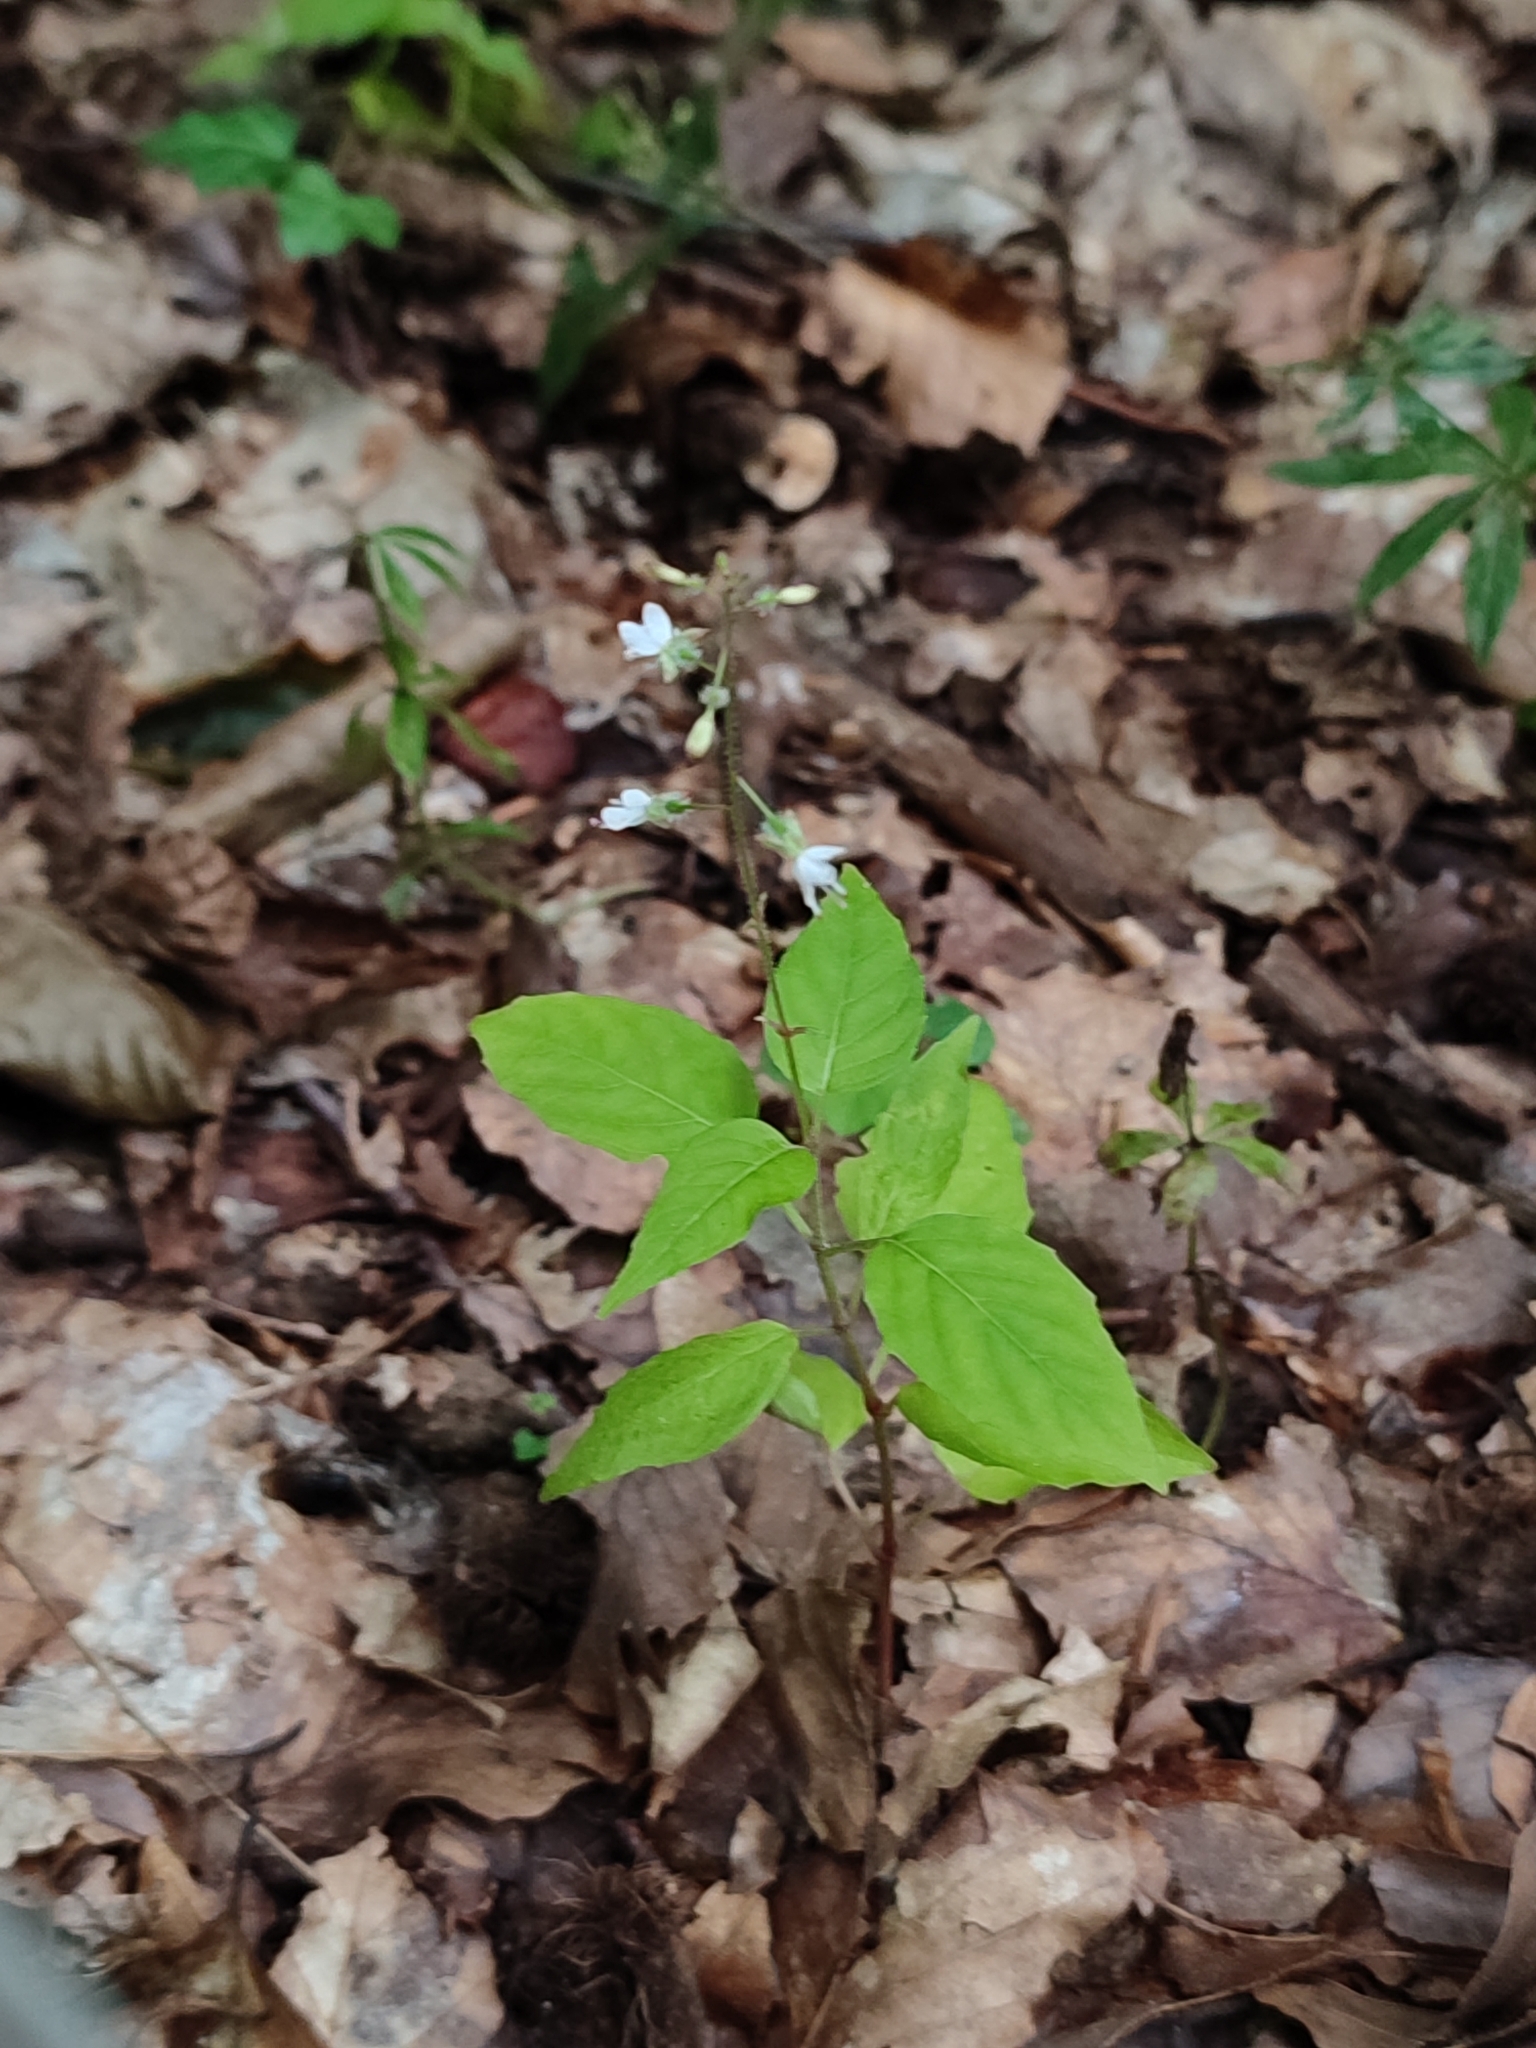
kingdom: Plantae
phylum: Tracheophyta
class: Magnoliopsida
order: Myrtales
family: Onagraceae
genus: Circaea
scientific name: Circaea lutetiana
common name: Enchanter's-nightshade
